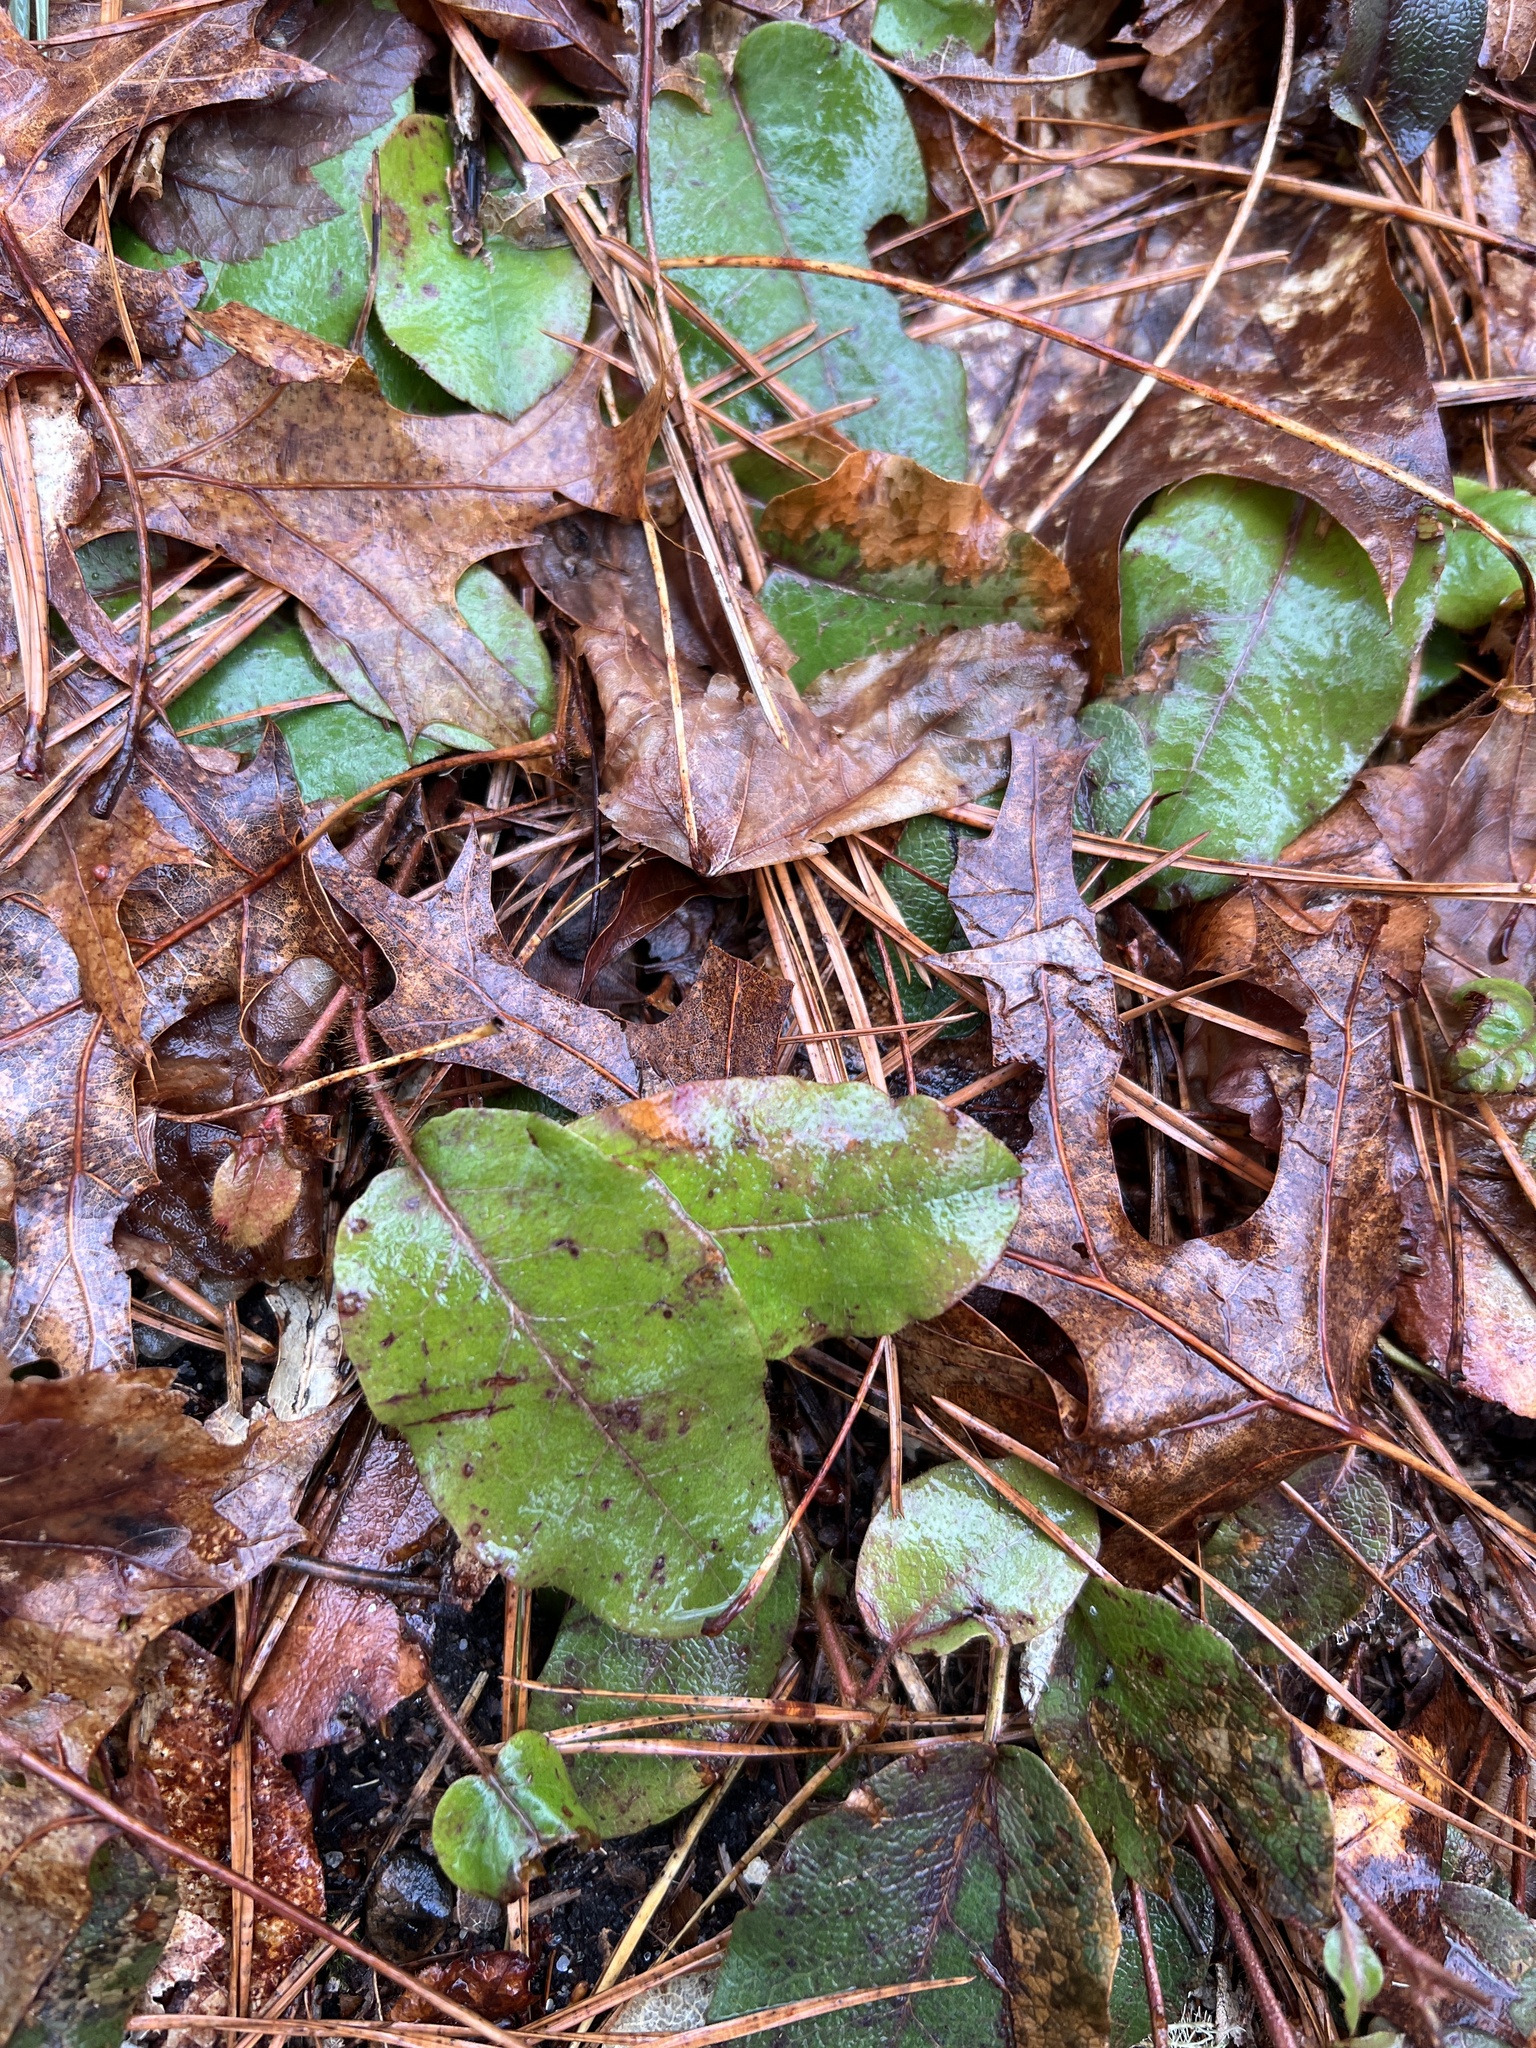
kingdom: Plantae
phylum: Tracheophyta
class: Magnoliopsida
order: Ericales
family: Ericaceae
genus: Epigaea
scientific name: Epigaea repens
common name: Gravelroot
